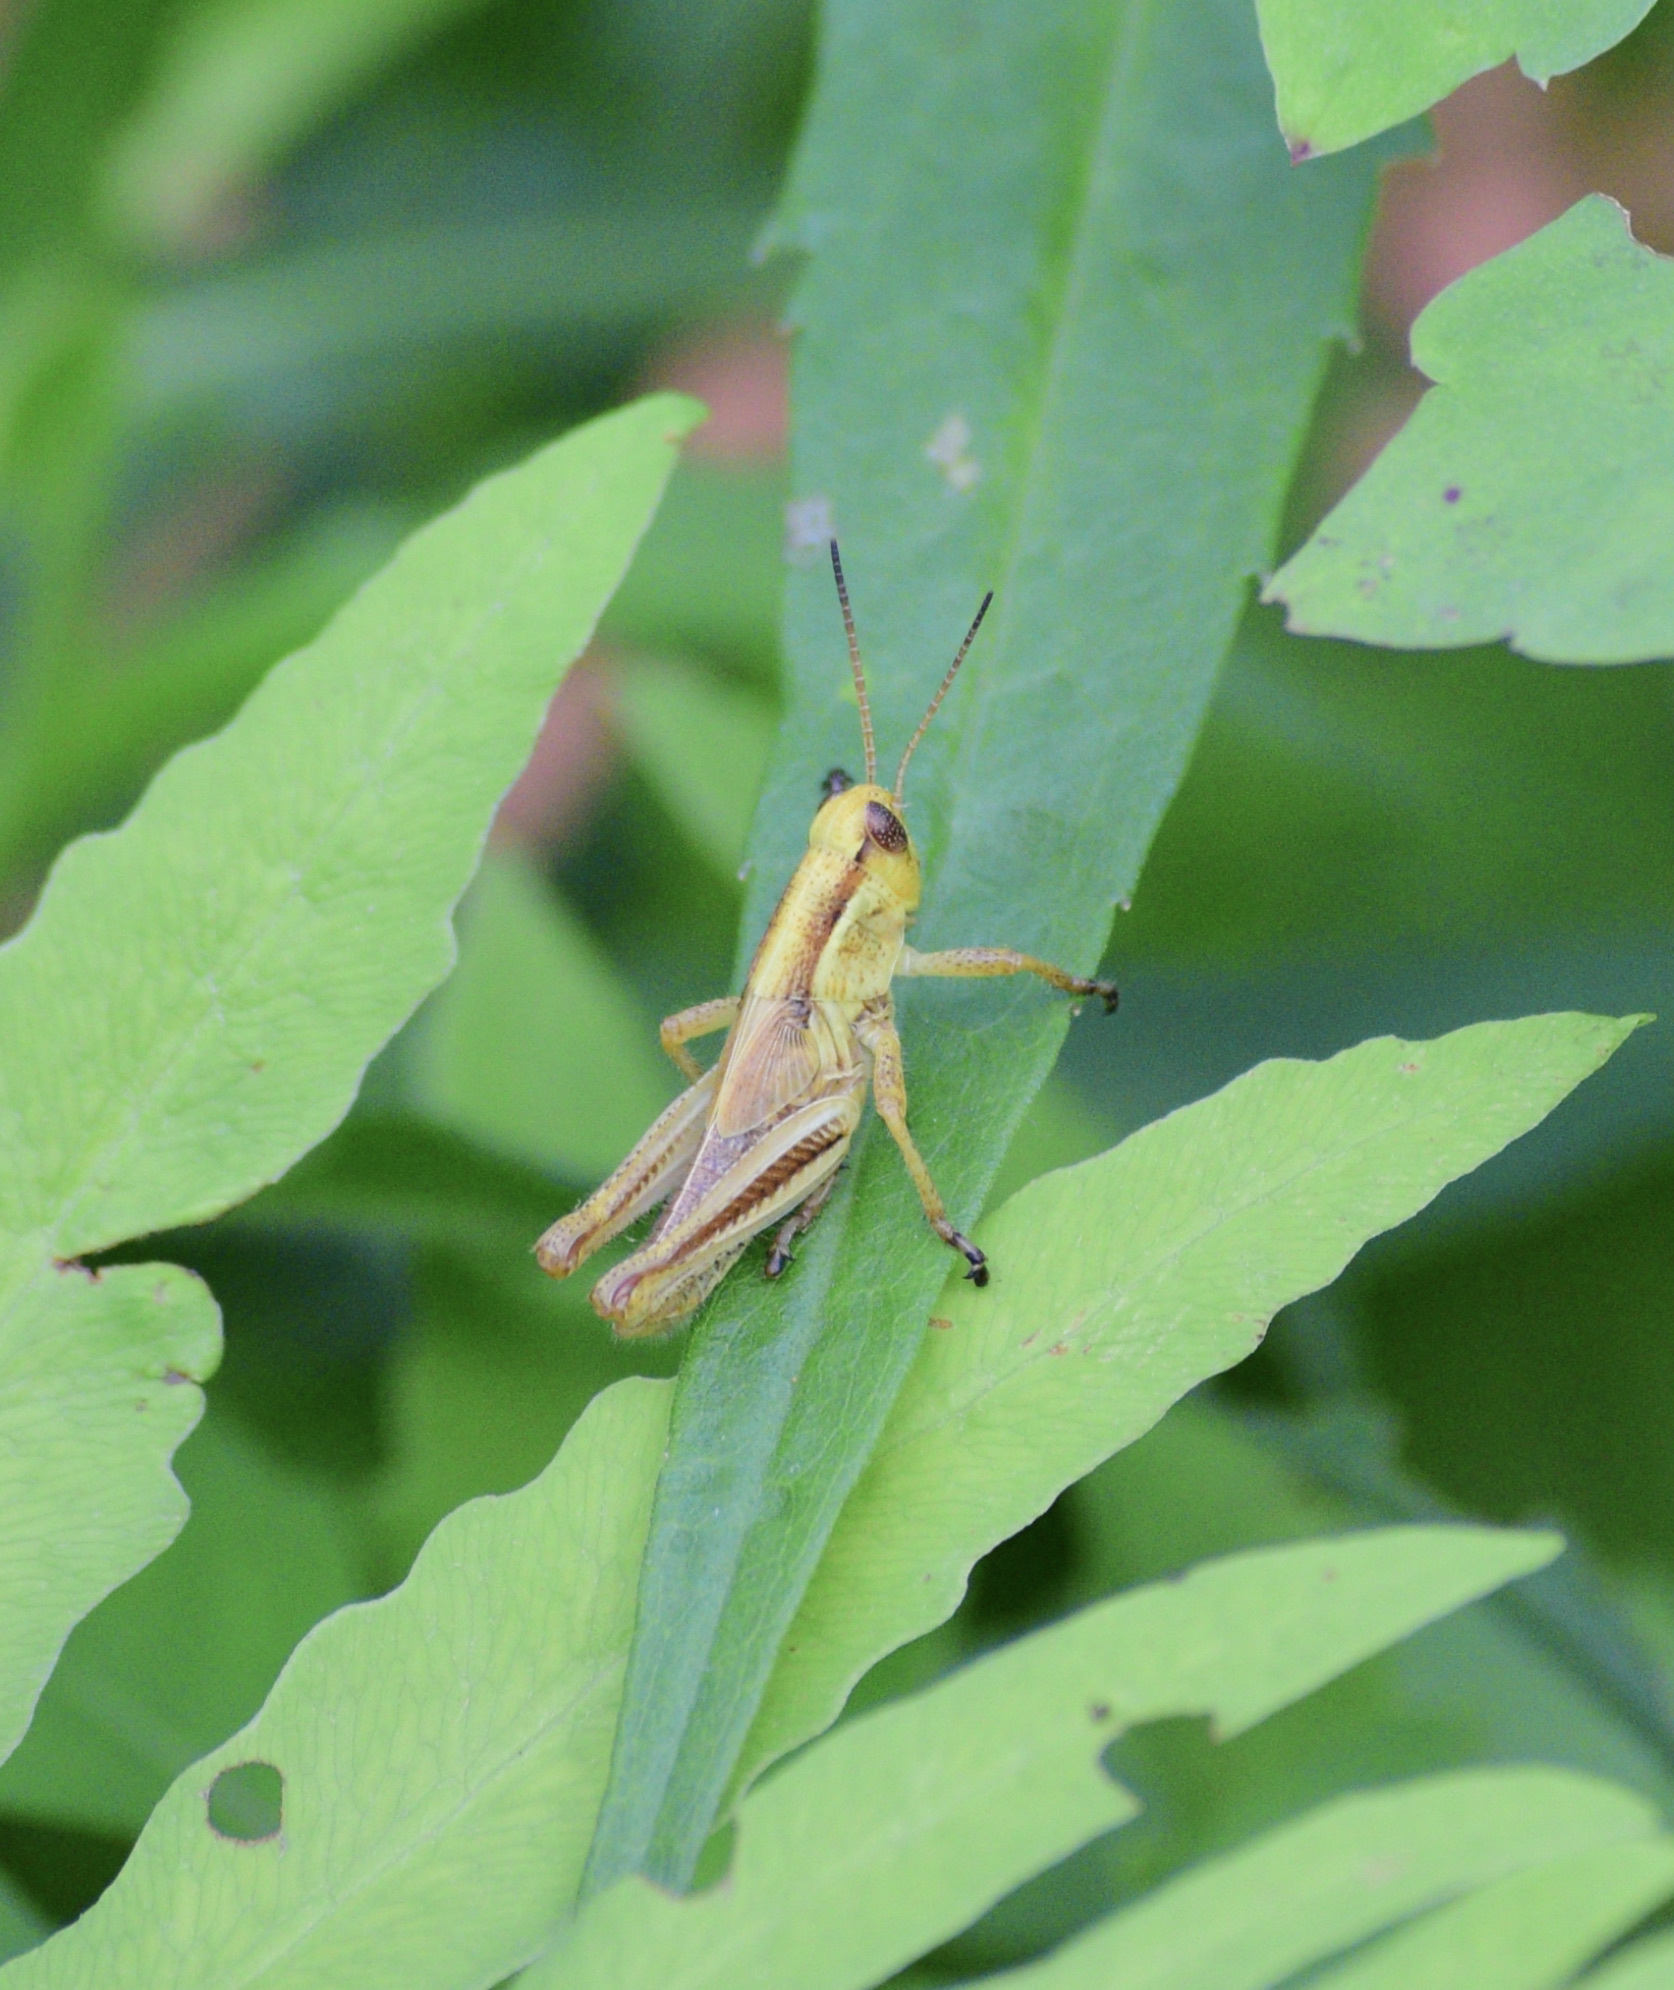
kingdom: Animalia
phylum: Arthropoda
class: Insecta
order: Orthoptera
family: Acrididae
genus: Melanoplus
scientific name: Melanoplus bivittatus
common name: Two-striped grasshopper
